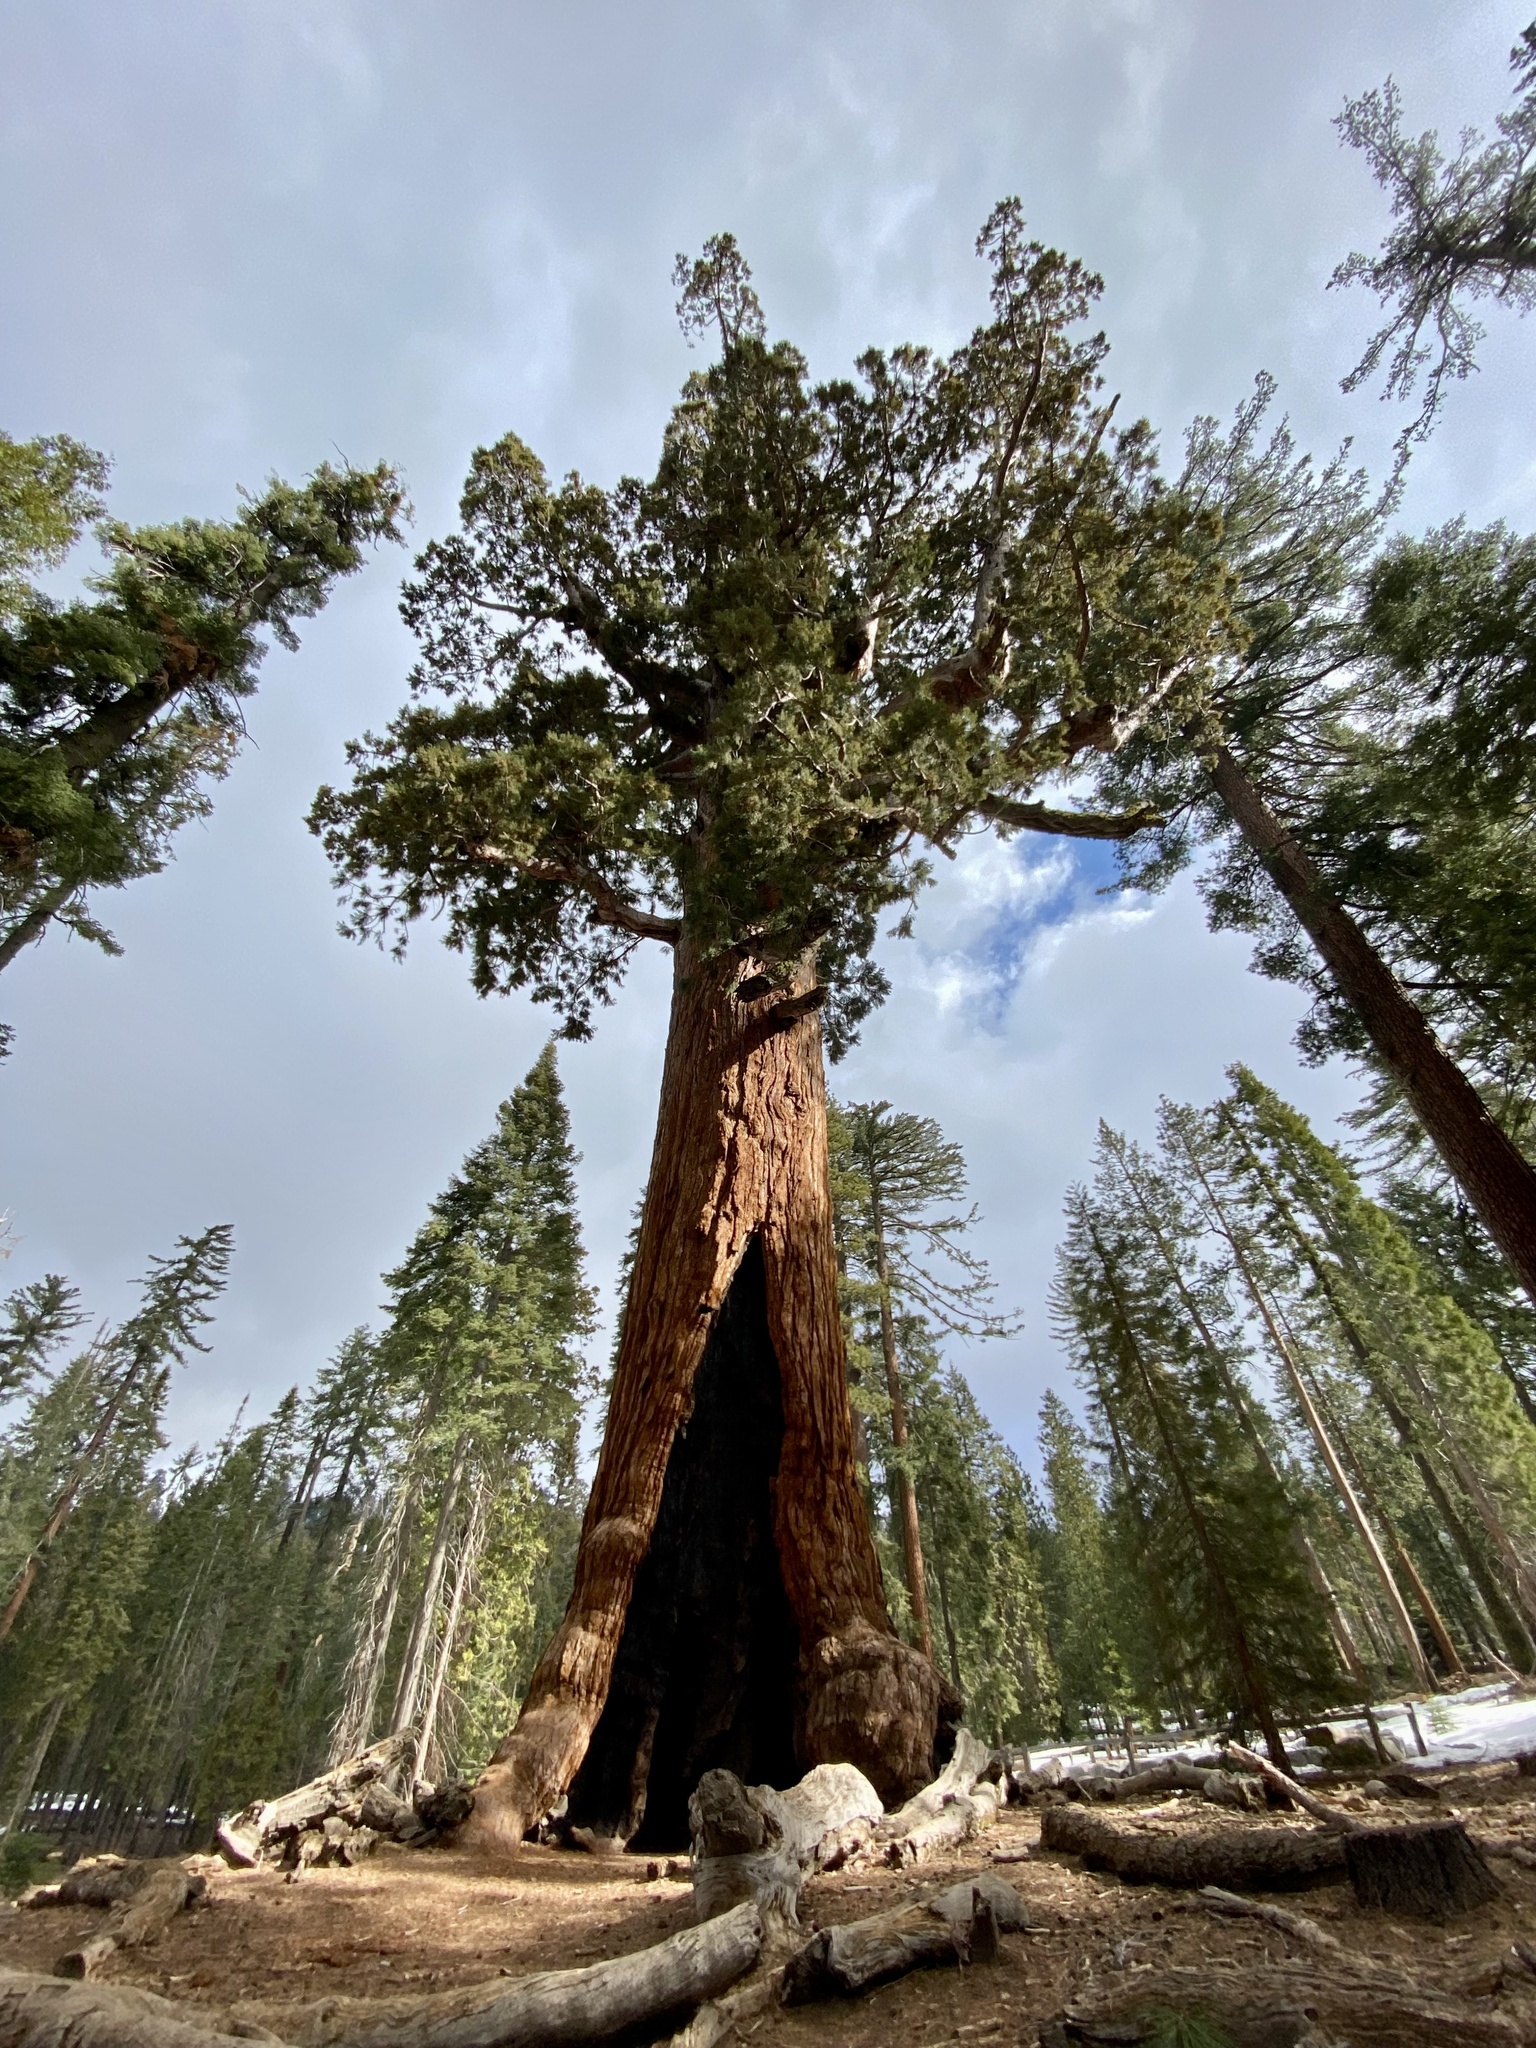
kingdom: Plantae
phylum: Tracheophyta
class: Pinopsida
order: Pinales
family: Cupressaceae
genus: Sequoiadendron
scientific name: Sequoiadendron giganteum
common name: Wellingtonia
